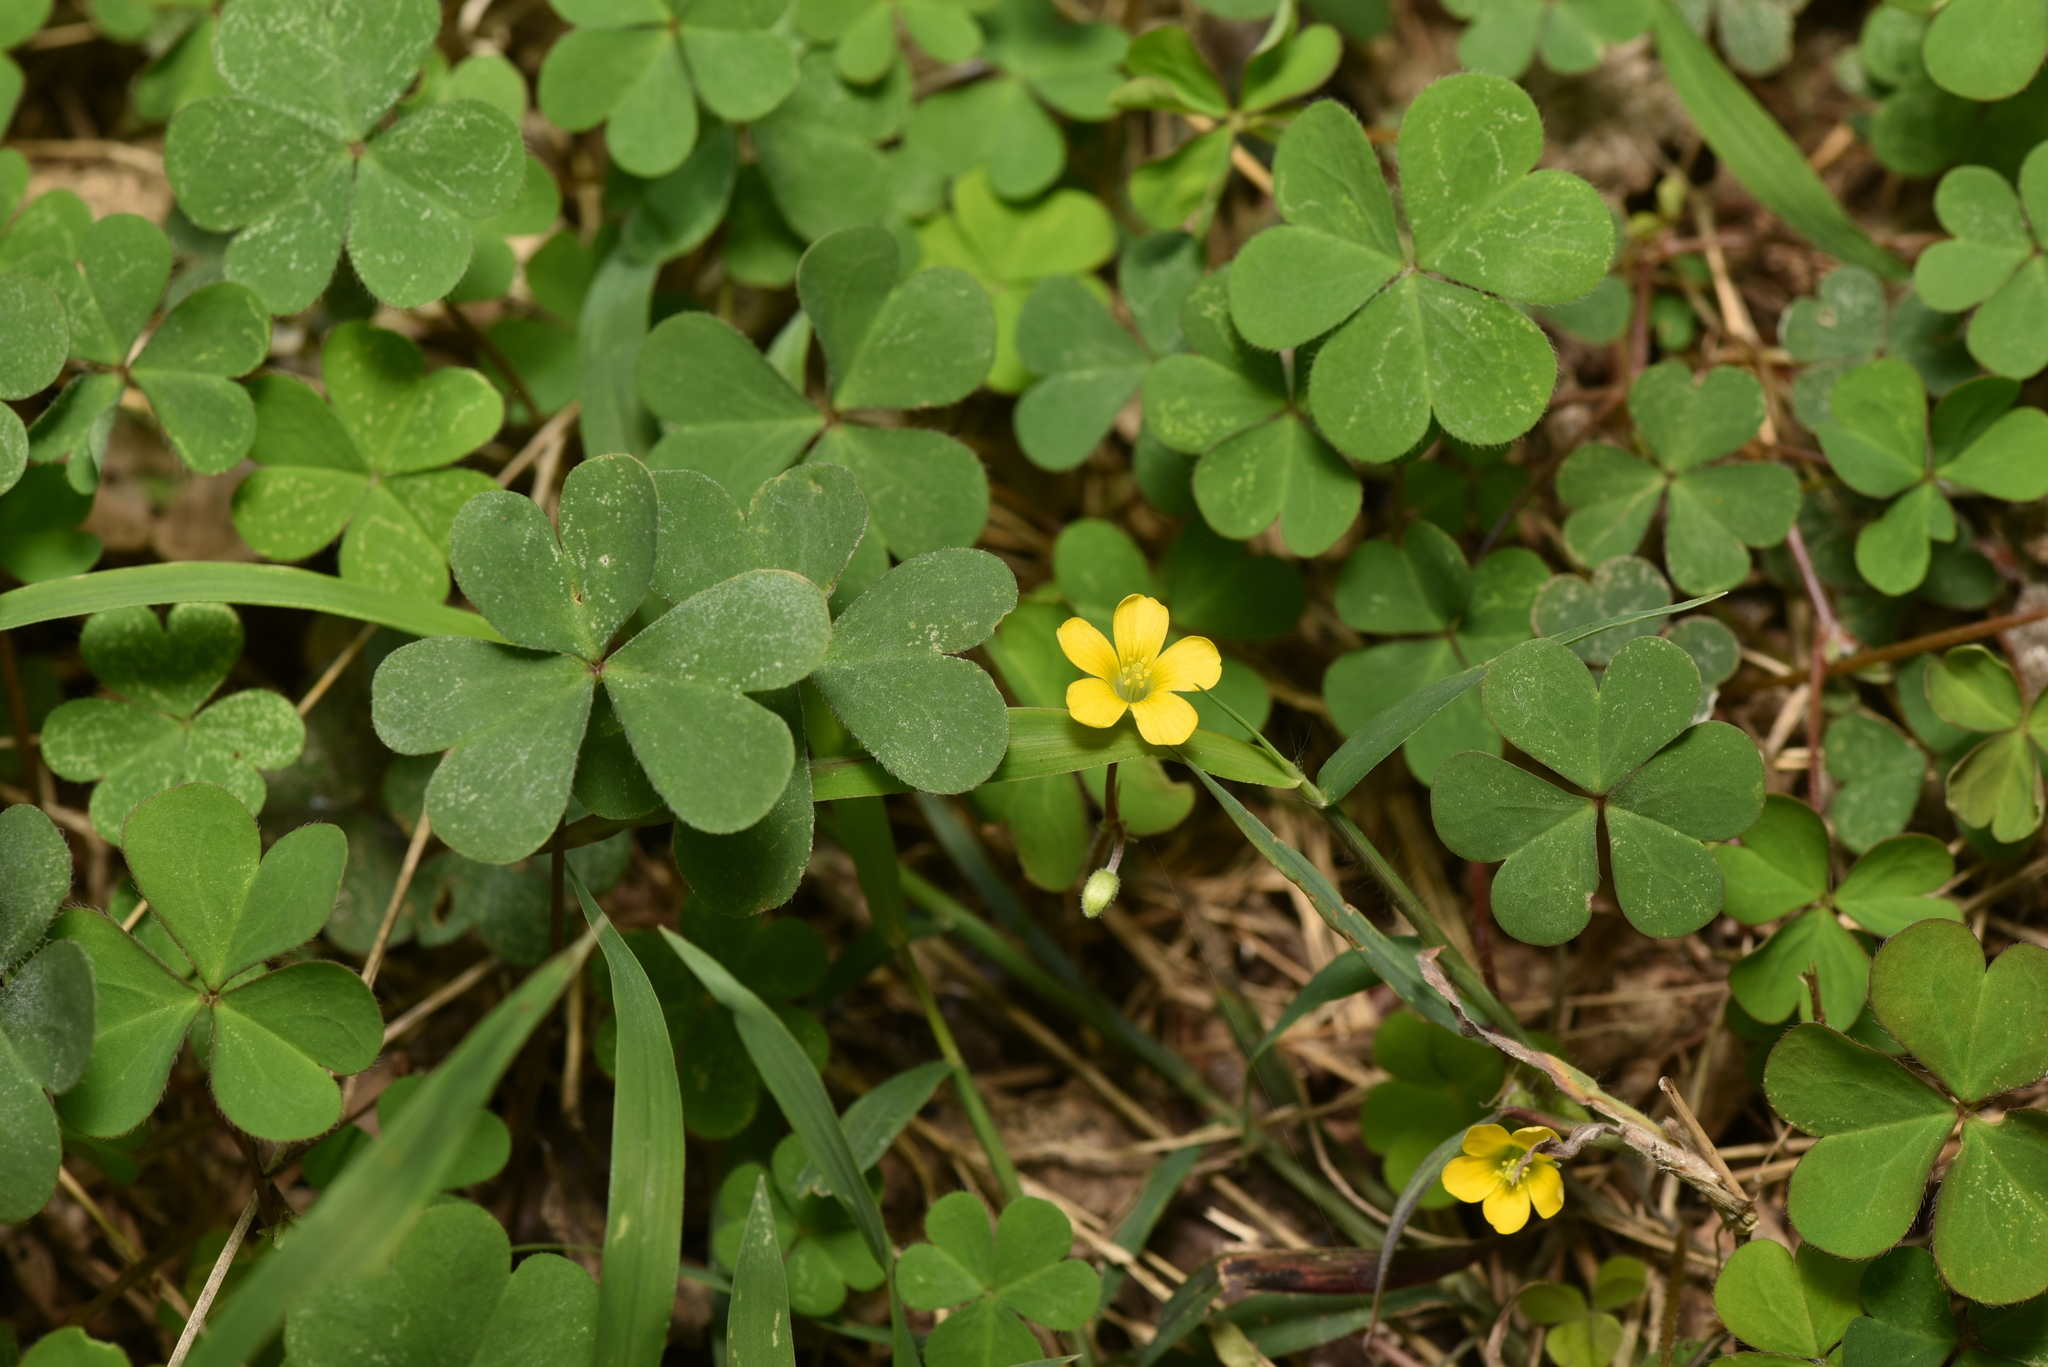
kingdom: Plantae
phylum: Tracheophyta
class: Magnoliopsida
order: Oxalidales
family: Oxalidaceae
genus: Oxalis
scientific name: Oxalis corniculata
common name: Procumbent yellow-sorrel
